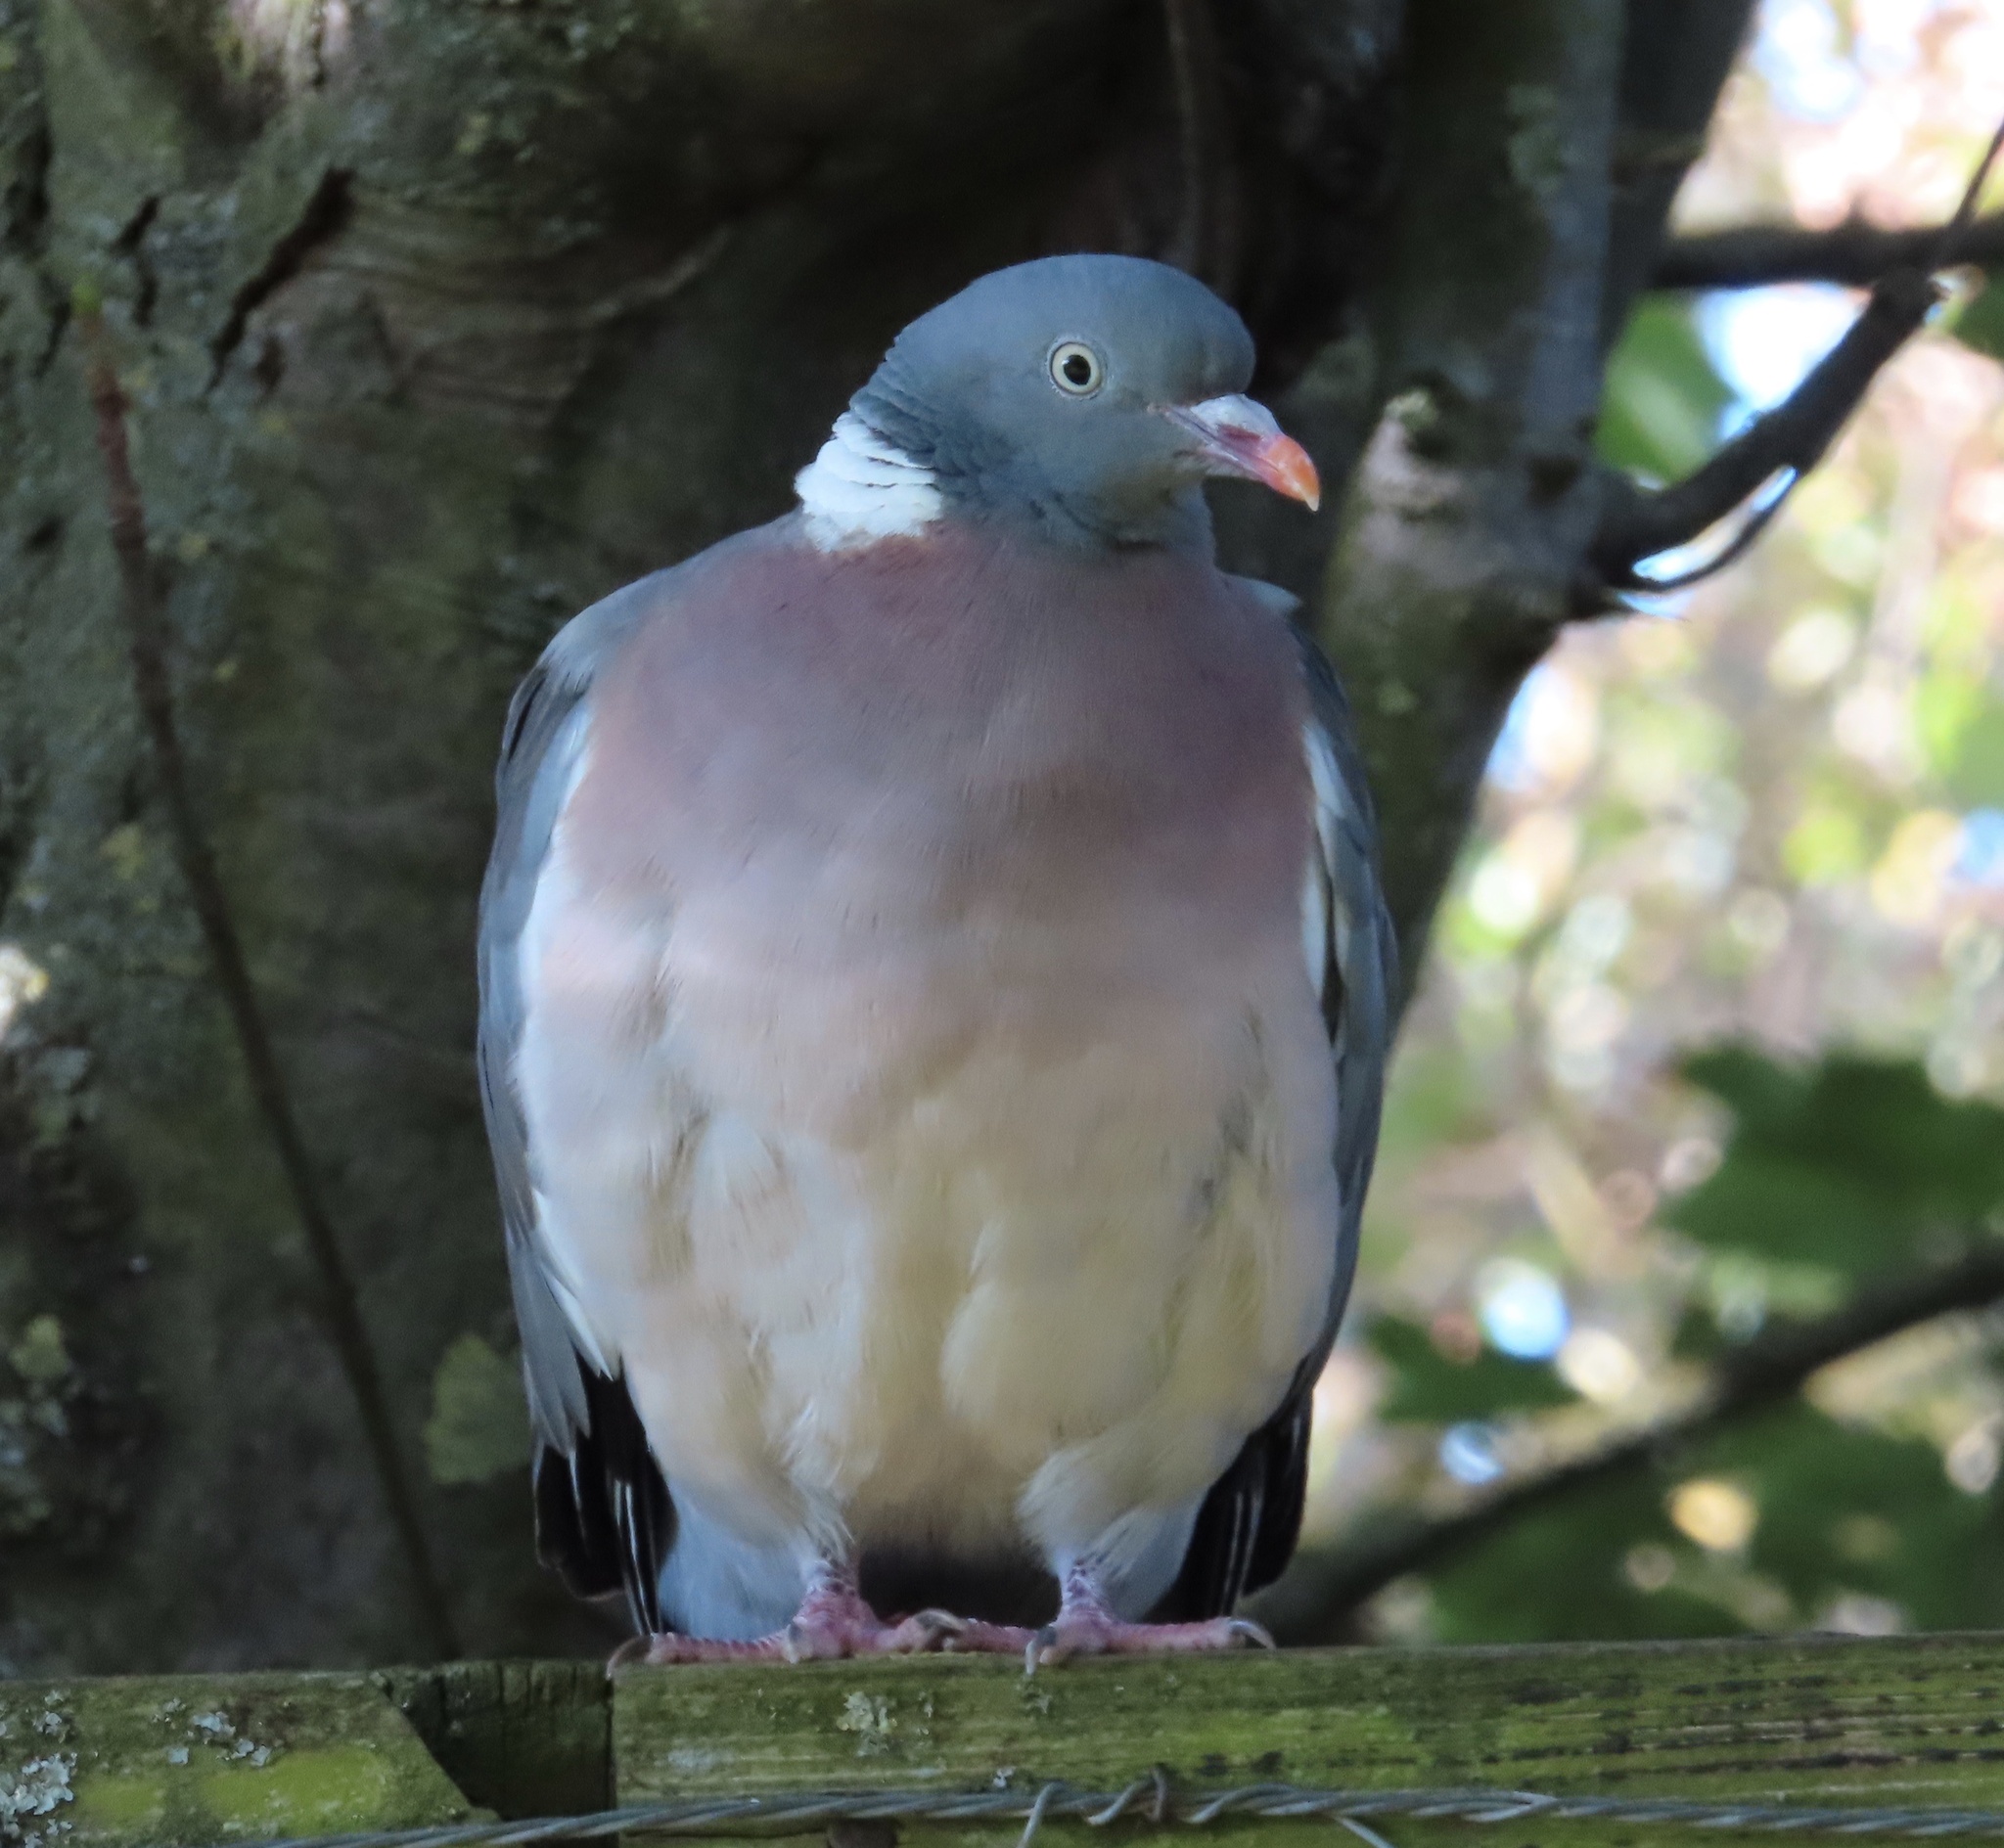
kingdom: Animalia
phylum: Chordata
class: Aves
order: Columbiformes
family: Columbidae
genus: Columba
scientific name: Columba palumbus
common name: Common wood pigeon
